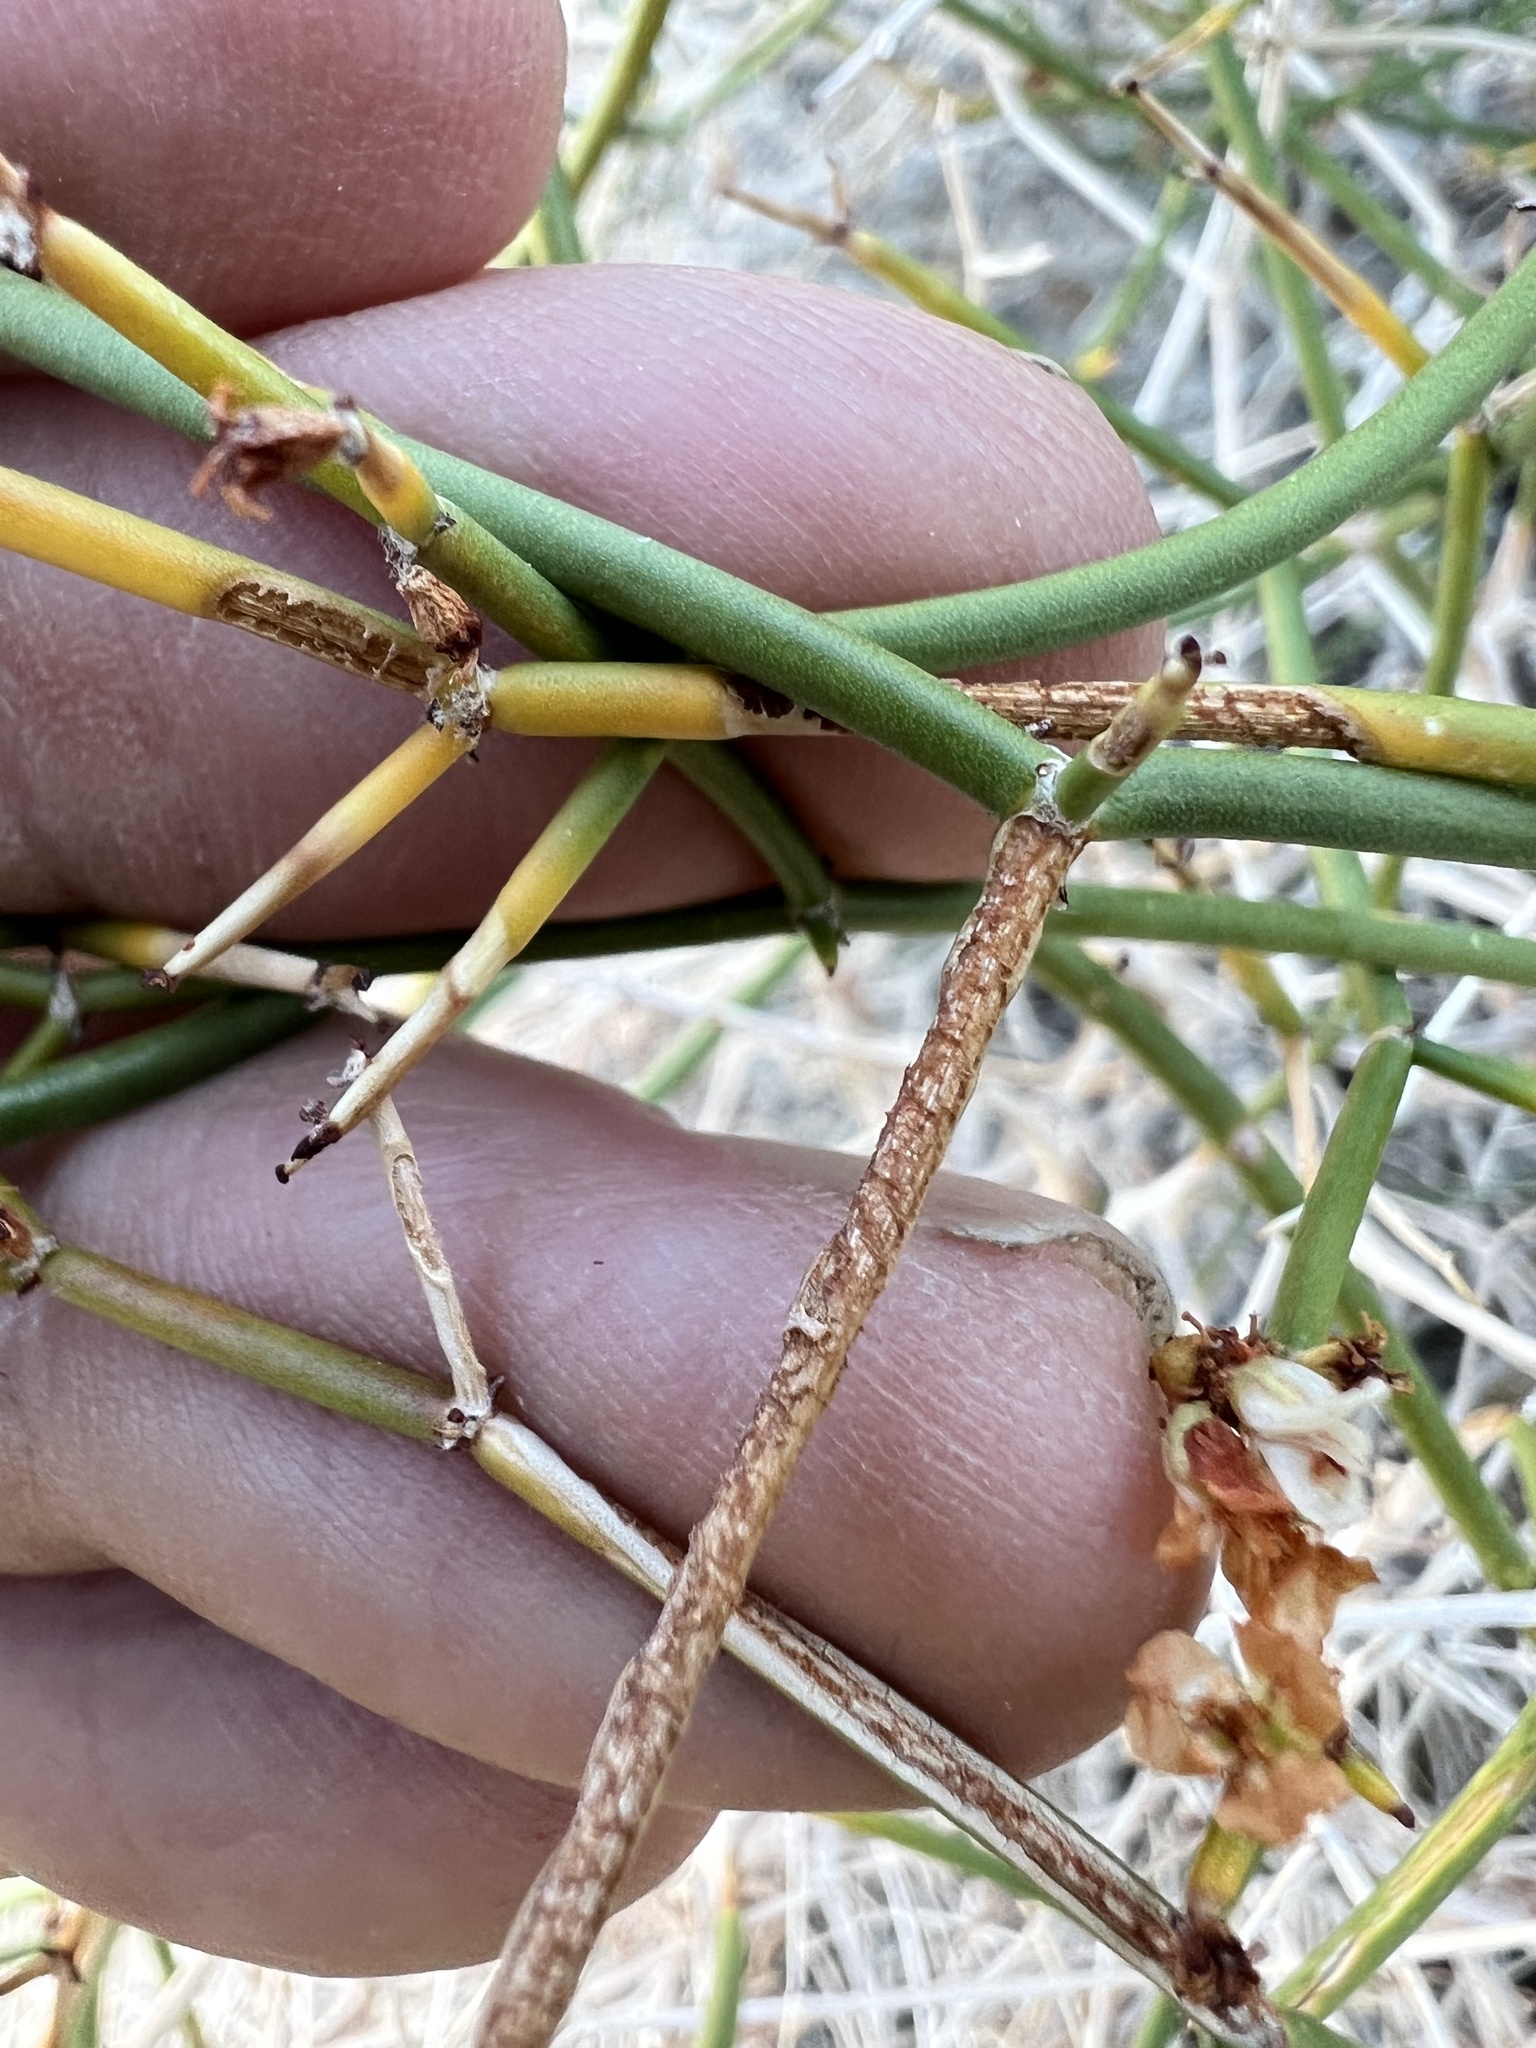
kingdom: Plantae
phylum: Tracheophyta
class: Magnoliopsida
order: Caryophyllales
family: Polygonaceae
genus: Eriogonum
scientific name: Eriogonum heermannii
